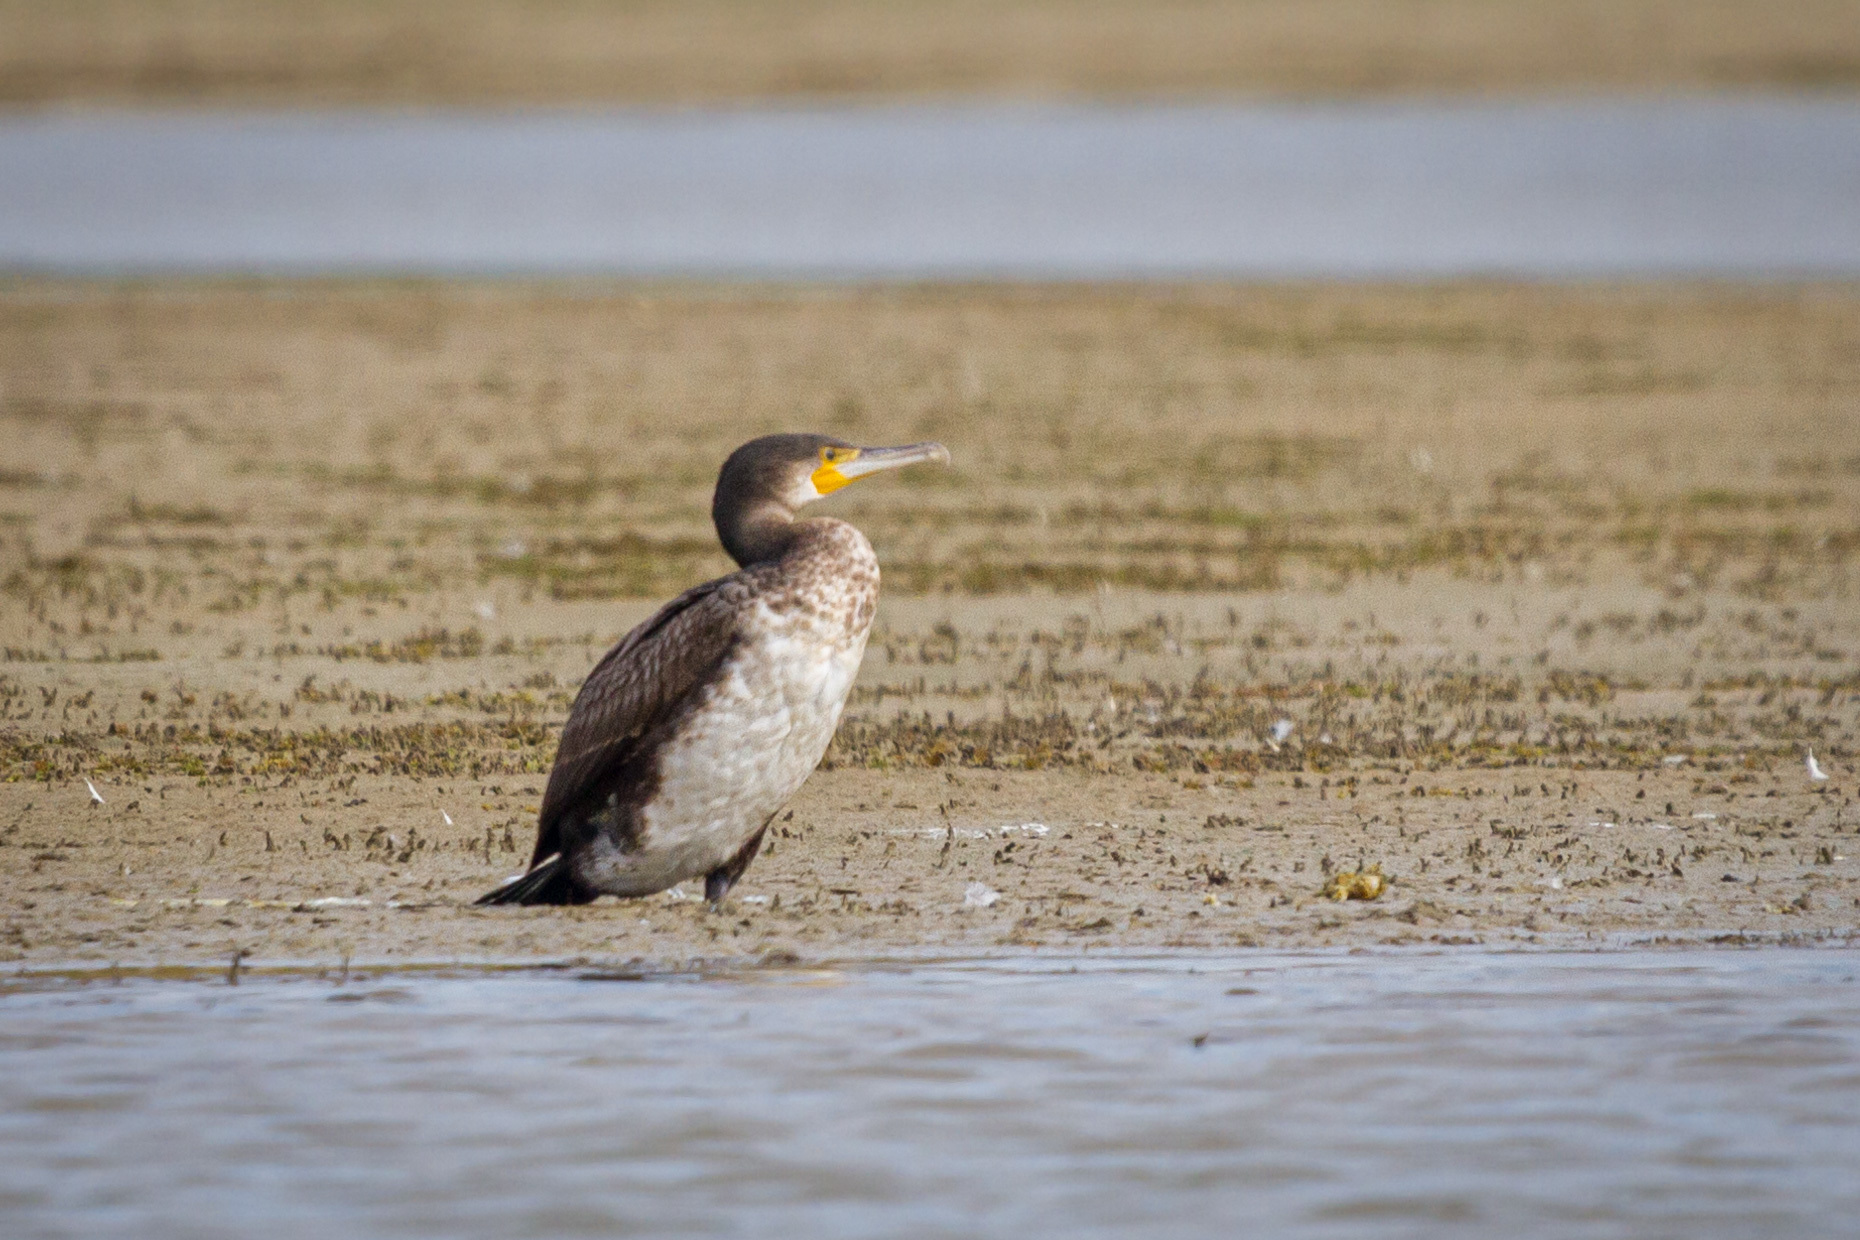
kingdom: Animalia
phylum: Chordata
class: Aves
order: Suliformes
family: Phalacrocoracidae
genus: Phalacrocorax
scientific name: Phalacrocorax carbo
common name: Great cormorant
